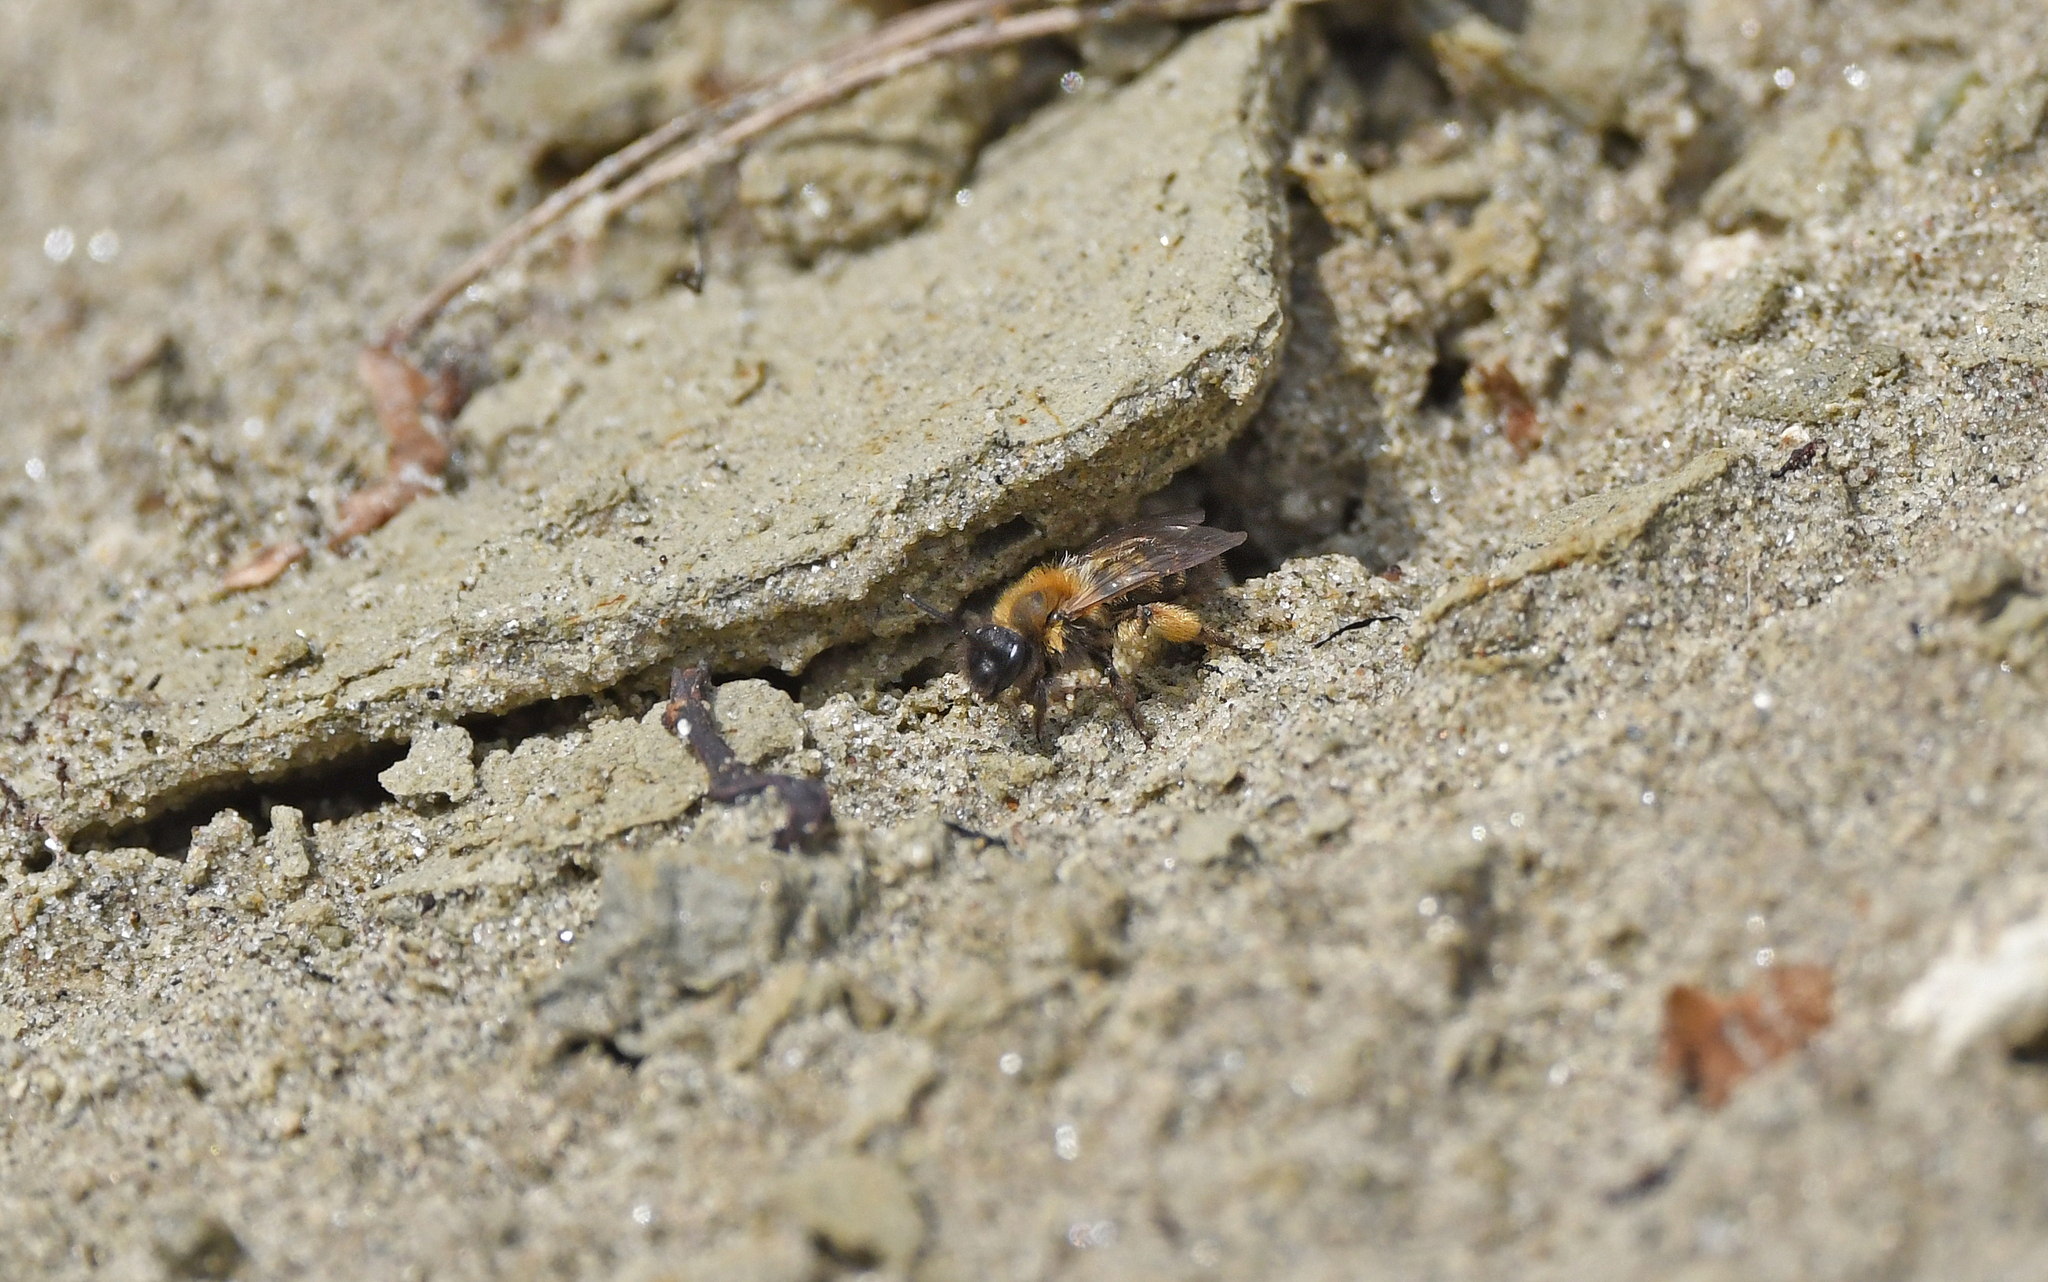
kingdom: Animalia
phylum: Arthropoda
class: Insecta
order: Hymenoptera
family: Andrenidae
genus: Andrena
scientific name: Andrena bicolor
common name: Gwynne's mining bee
